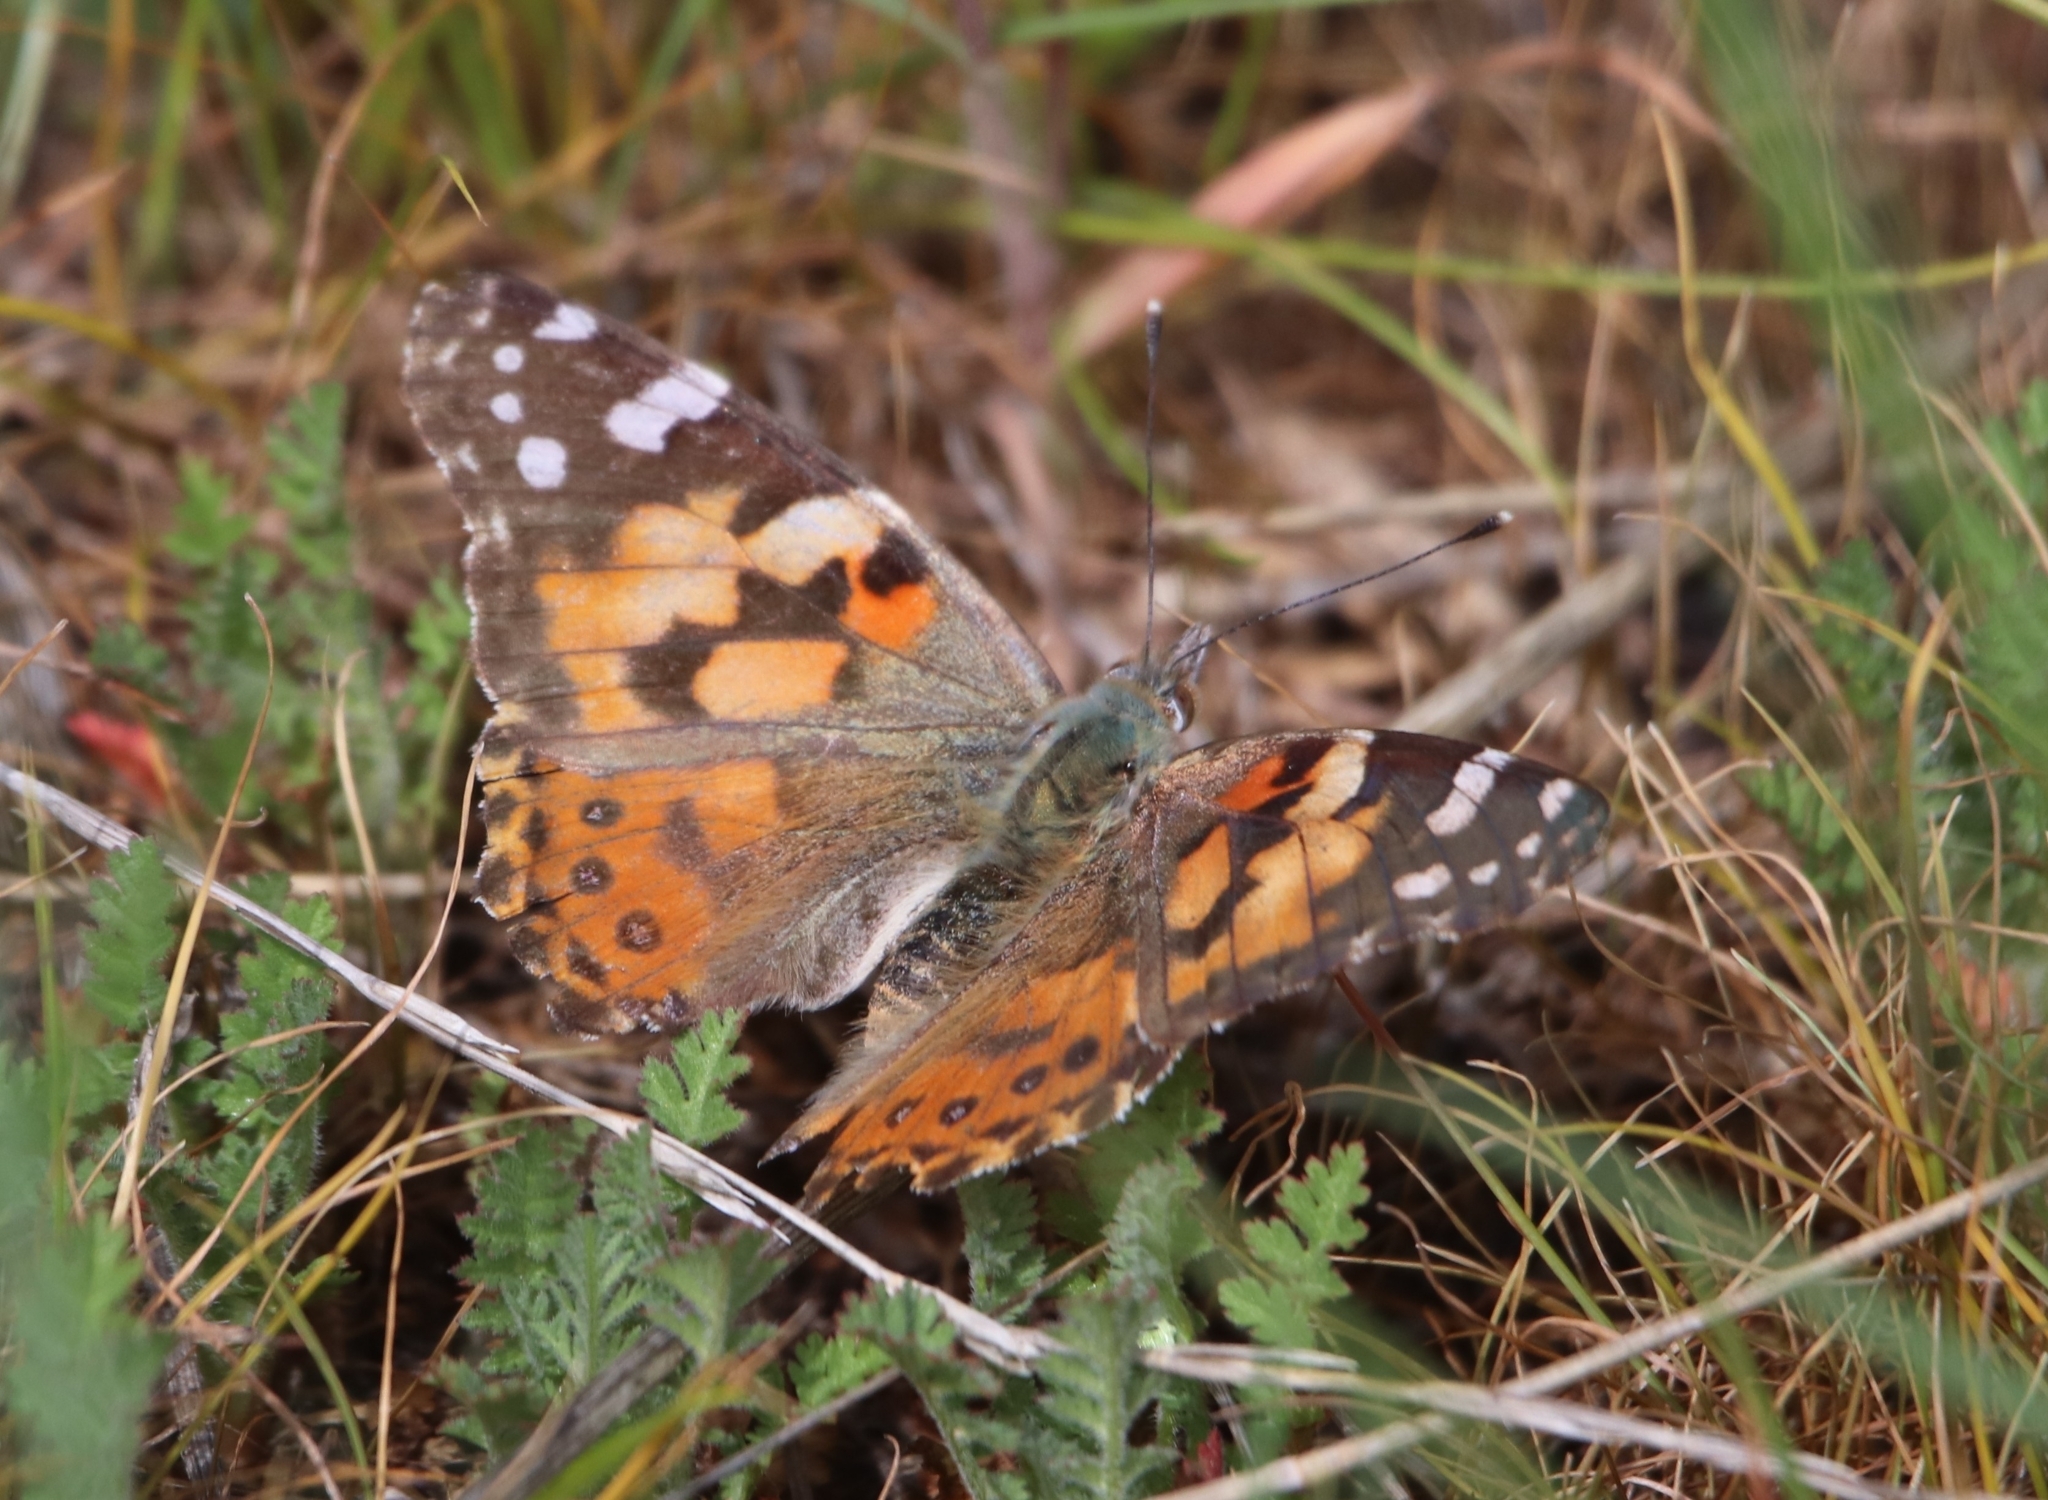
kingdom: Animalia
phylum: Arthropoda
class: Insecta
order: Lepidoptera
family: Nymphalidae
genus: Vanessa
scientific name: Vanessa cardui
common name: Painted lady
